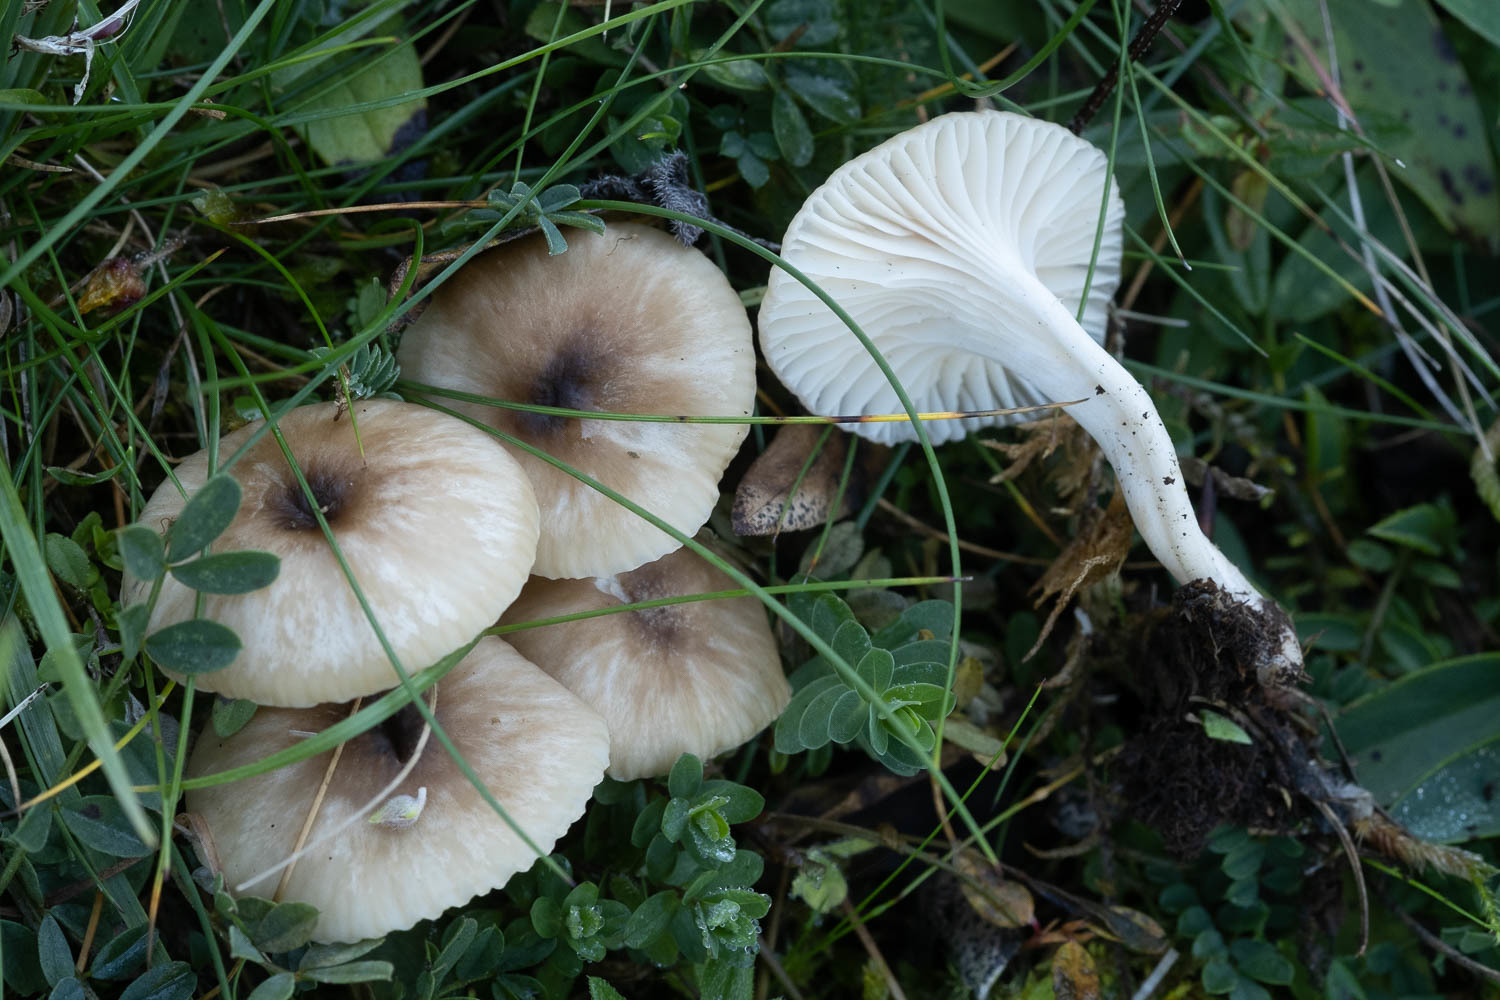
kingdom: Fungi
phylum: Basidiomycota
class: Agaricomycetes
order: Agaricales
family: Hygrophoraceae
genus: Cuphophyllus
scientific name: Cuphophyllus virgineus
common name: Snowy waxcap
